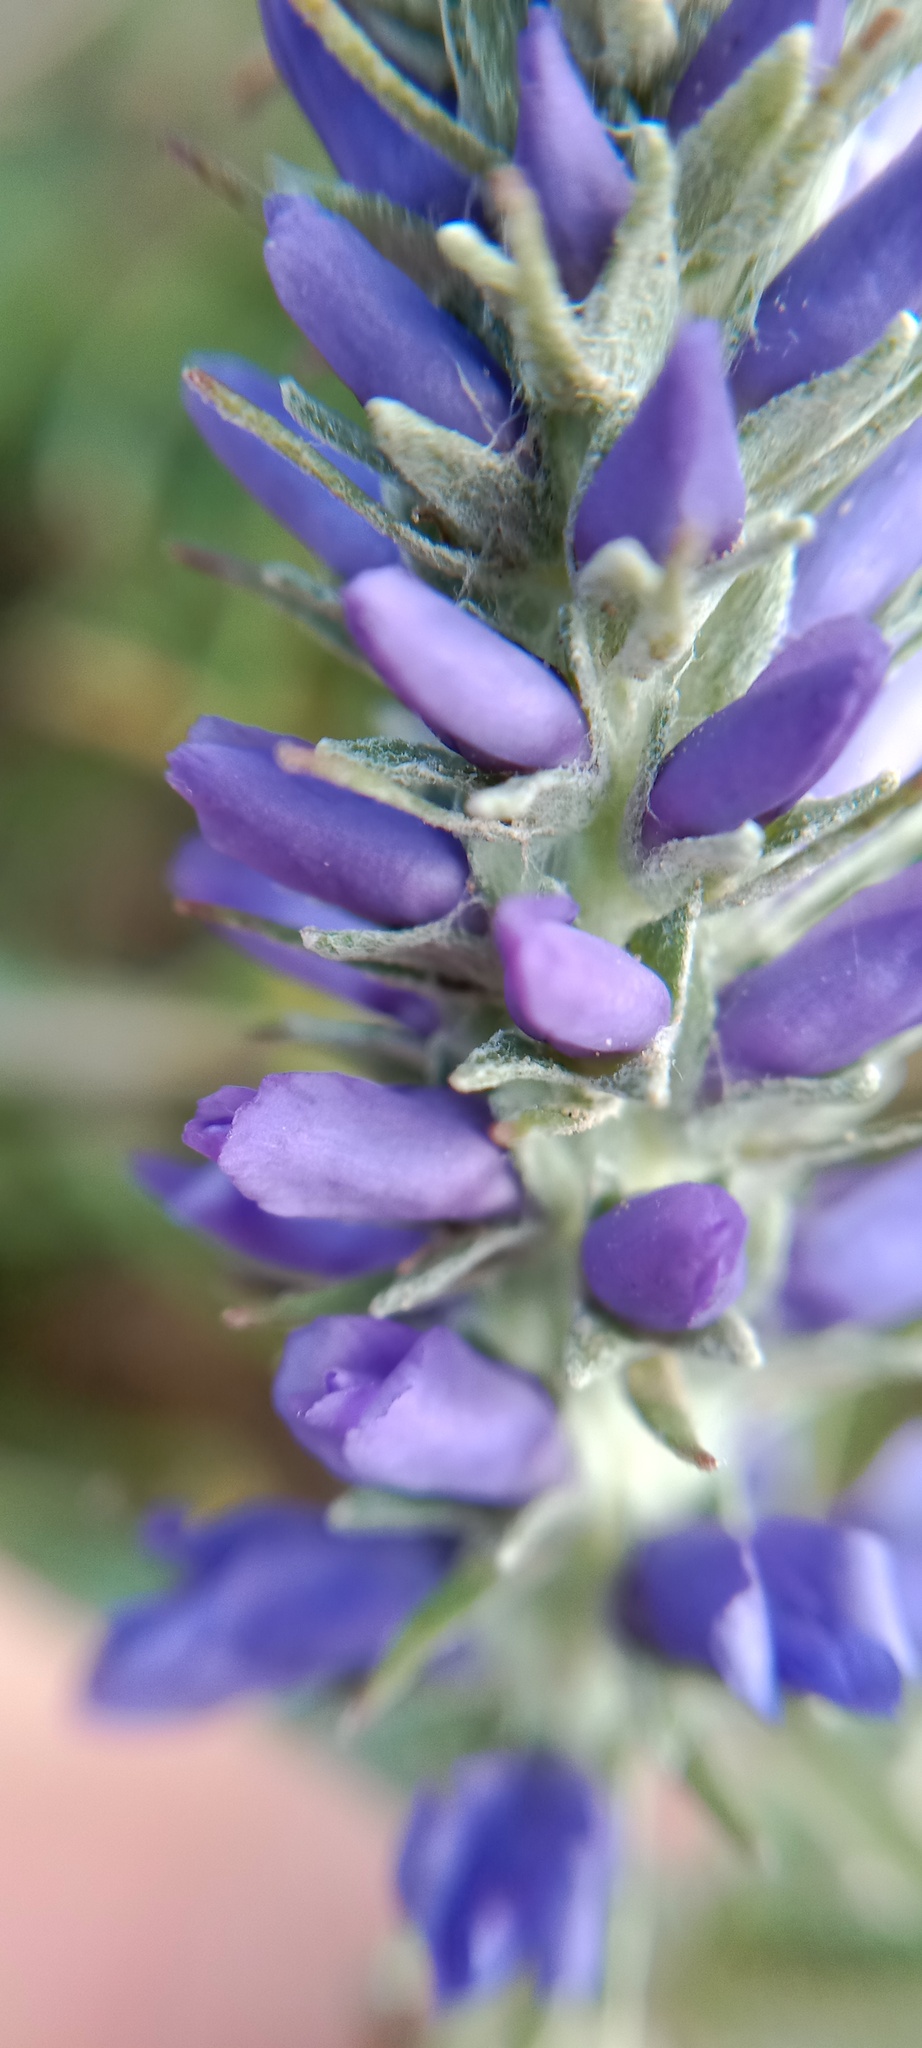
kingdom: Plantae
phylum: Tracheophyta
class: Magnoliopsida
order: Lamiales
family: Plantaginaceae
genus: Veronica
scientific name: Veronica incana
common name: Silver speedwell
